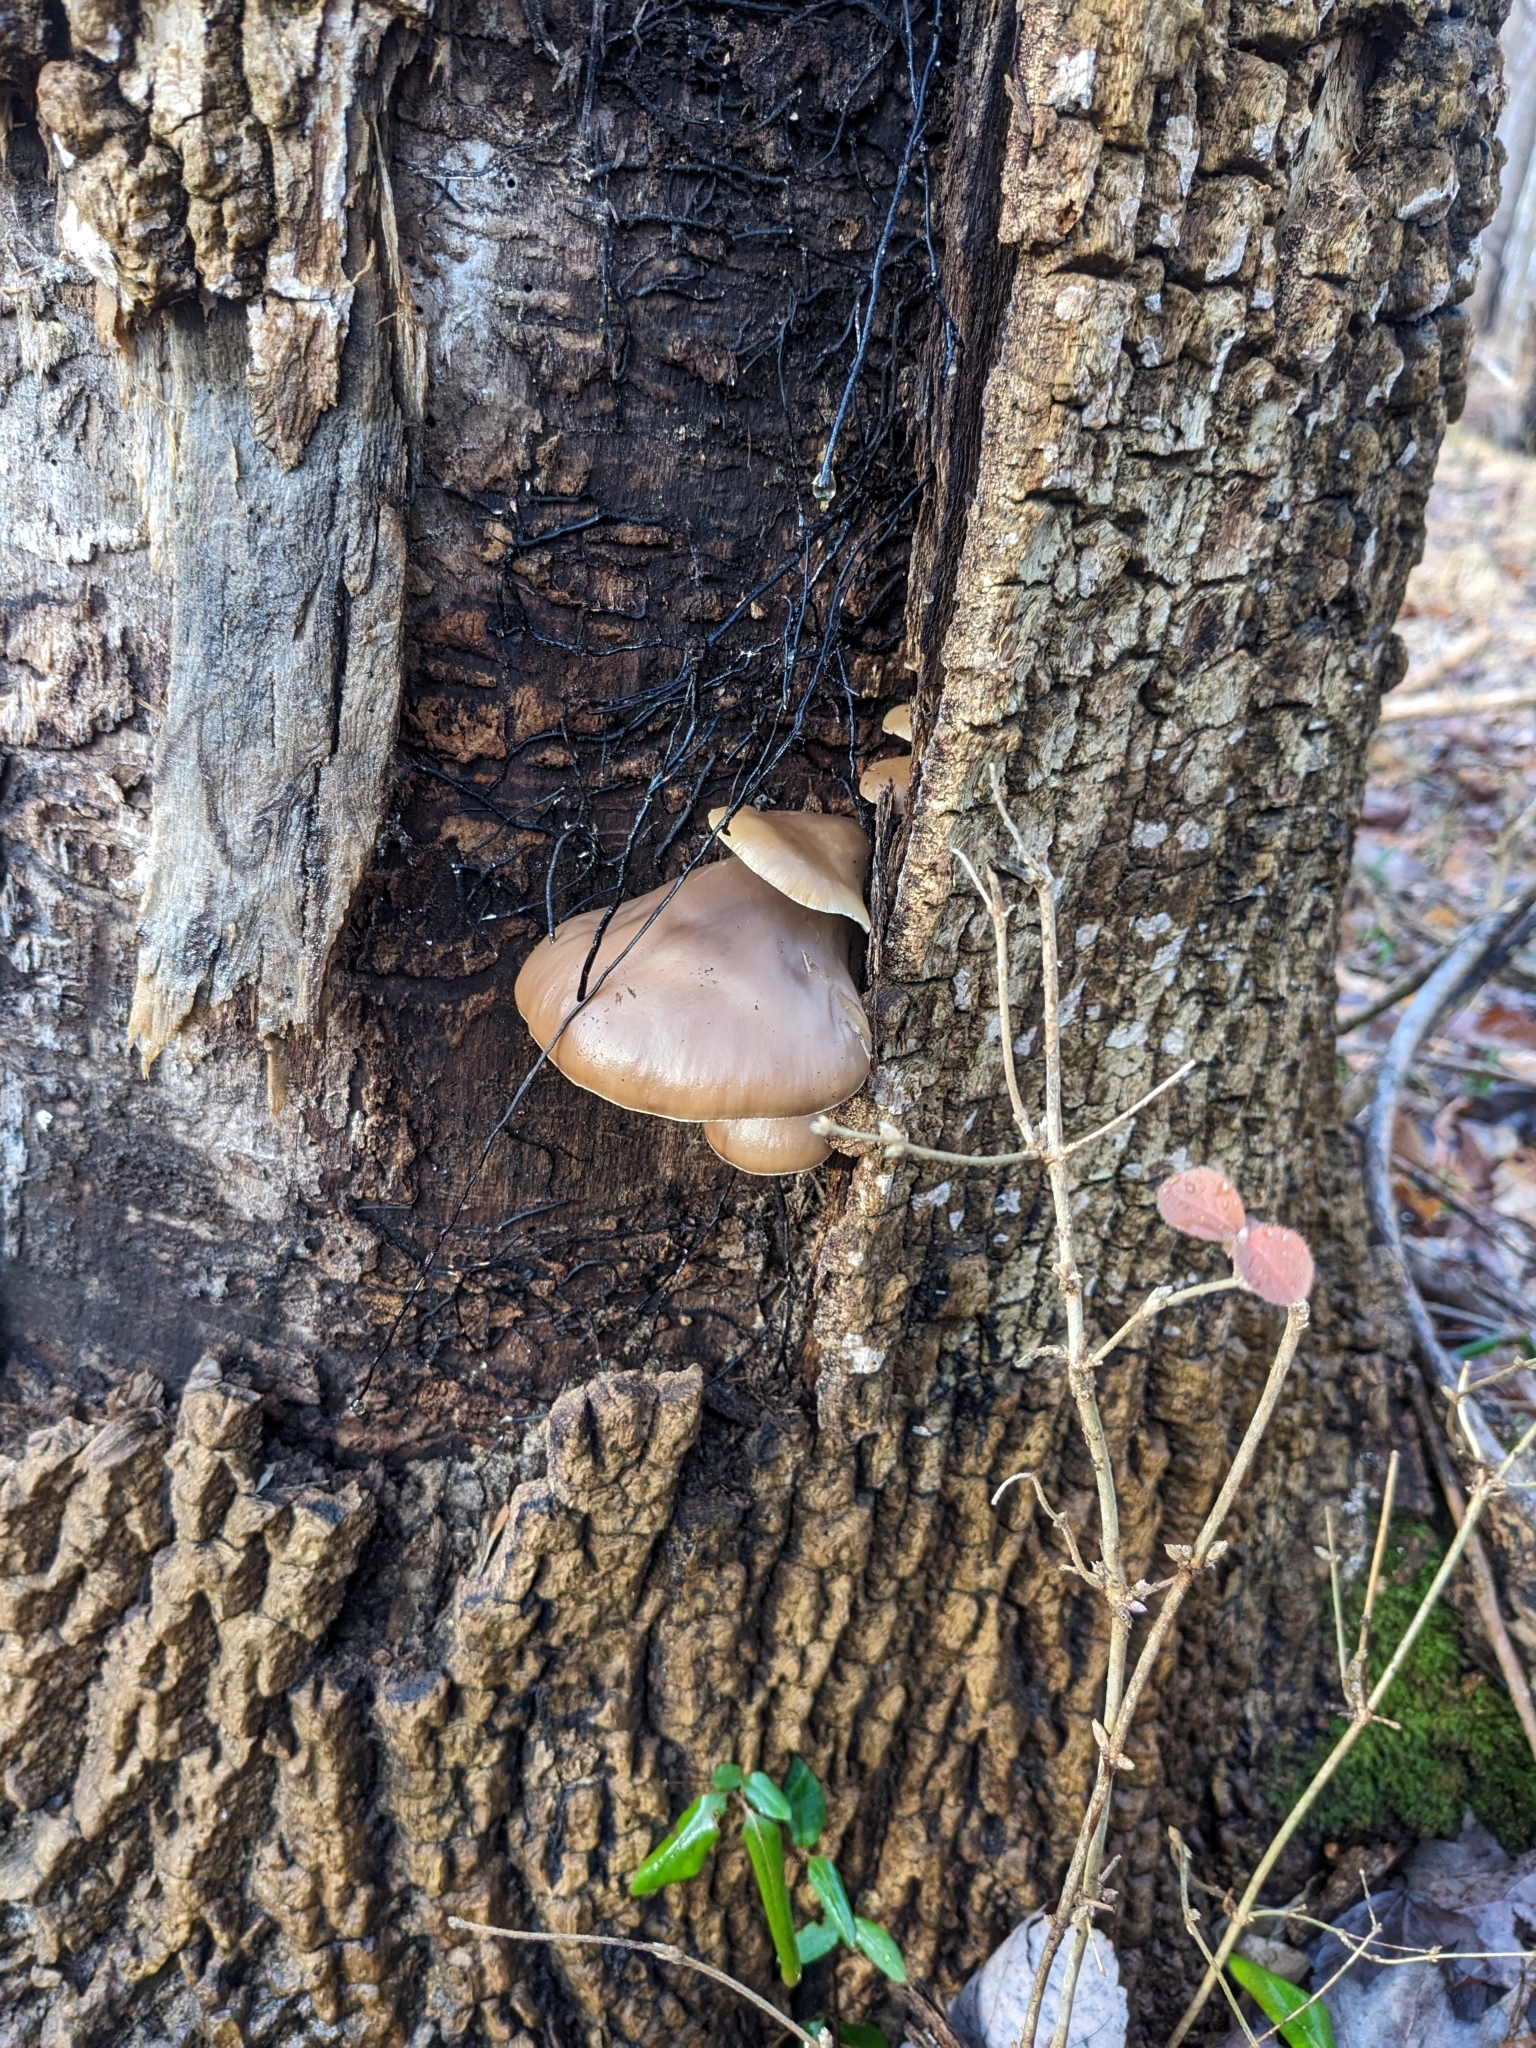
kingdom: Fungi
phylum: Basidiomycota
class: Agaricomycetes
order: Agaricales
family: Pleurotaceae
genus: Pleurotus
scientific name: Pleurotus ostreatus
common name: Oyster mushroom
